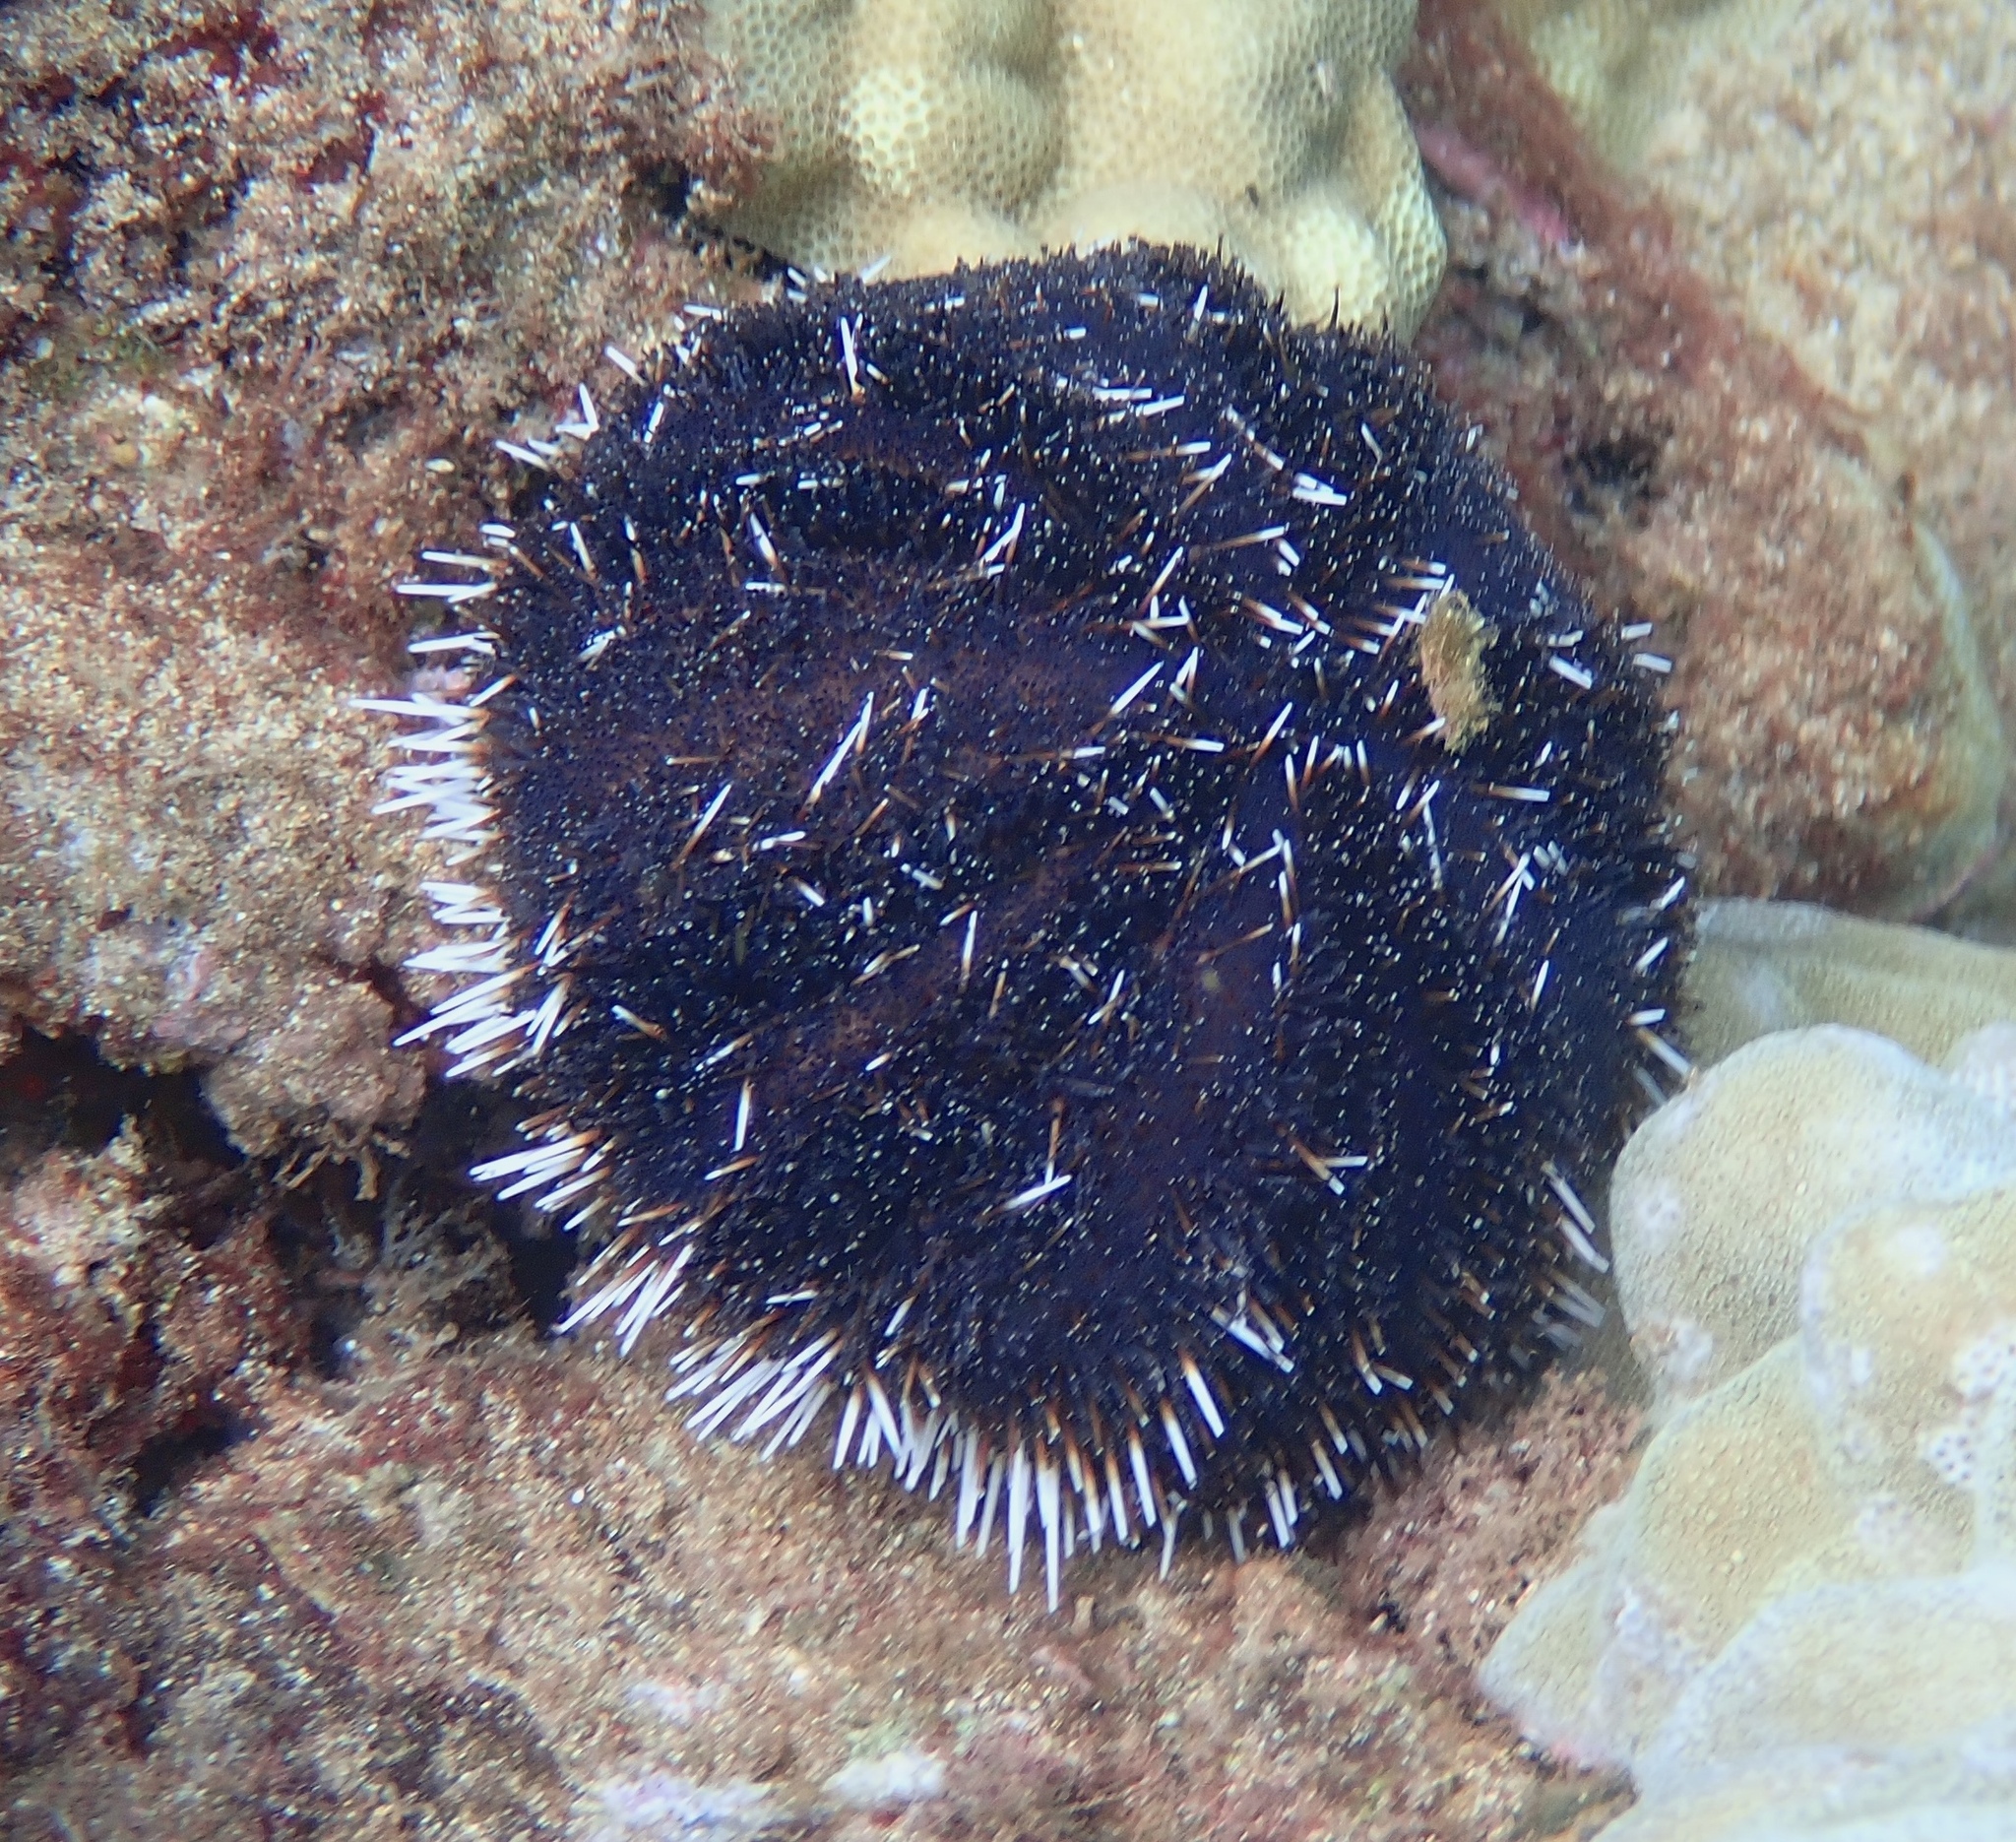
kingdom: Animalia
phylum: Echinodermata
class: Echinoidea
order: Camarodonta
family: Toxopneustidae
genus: Tripneustes
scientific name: Tripneustes gratilla
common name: Bischofsmützenseeigel
